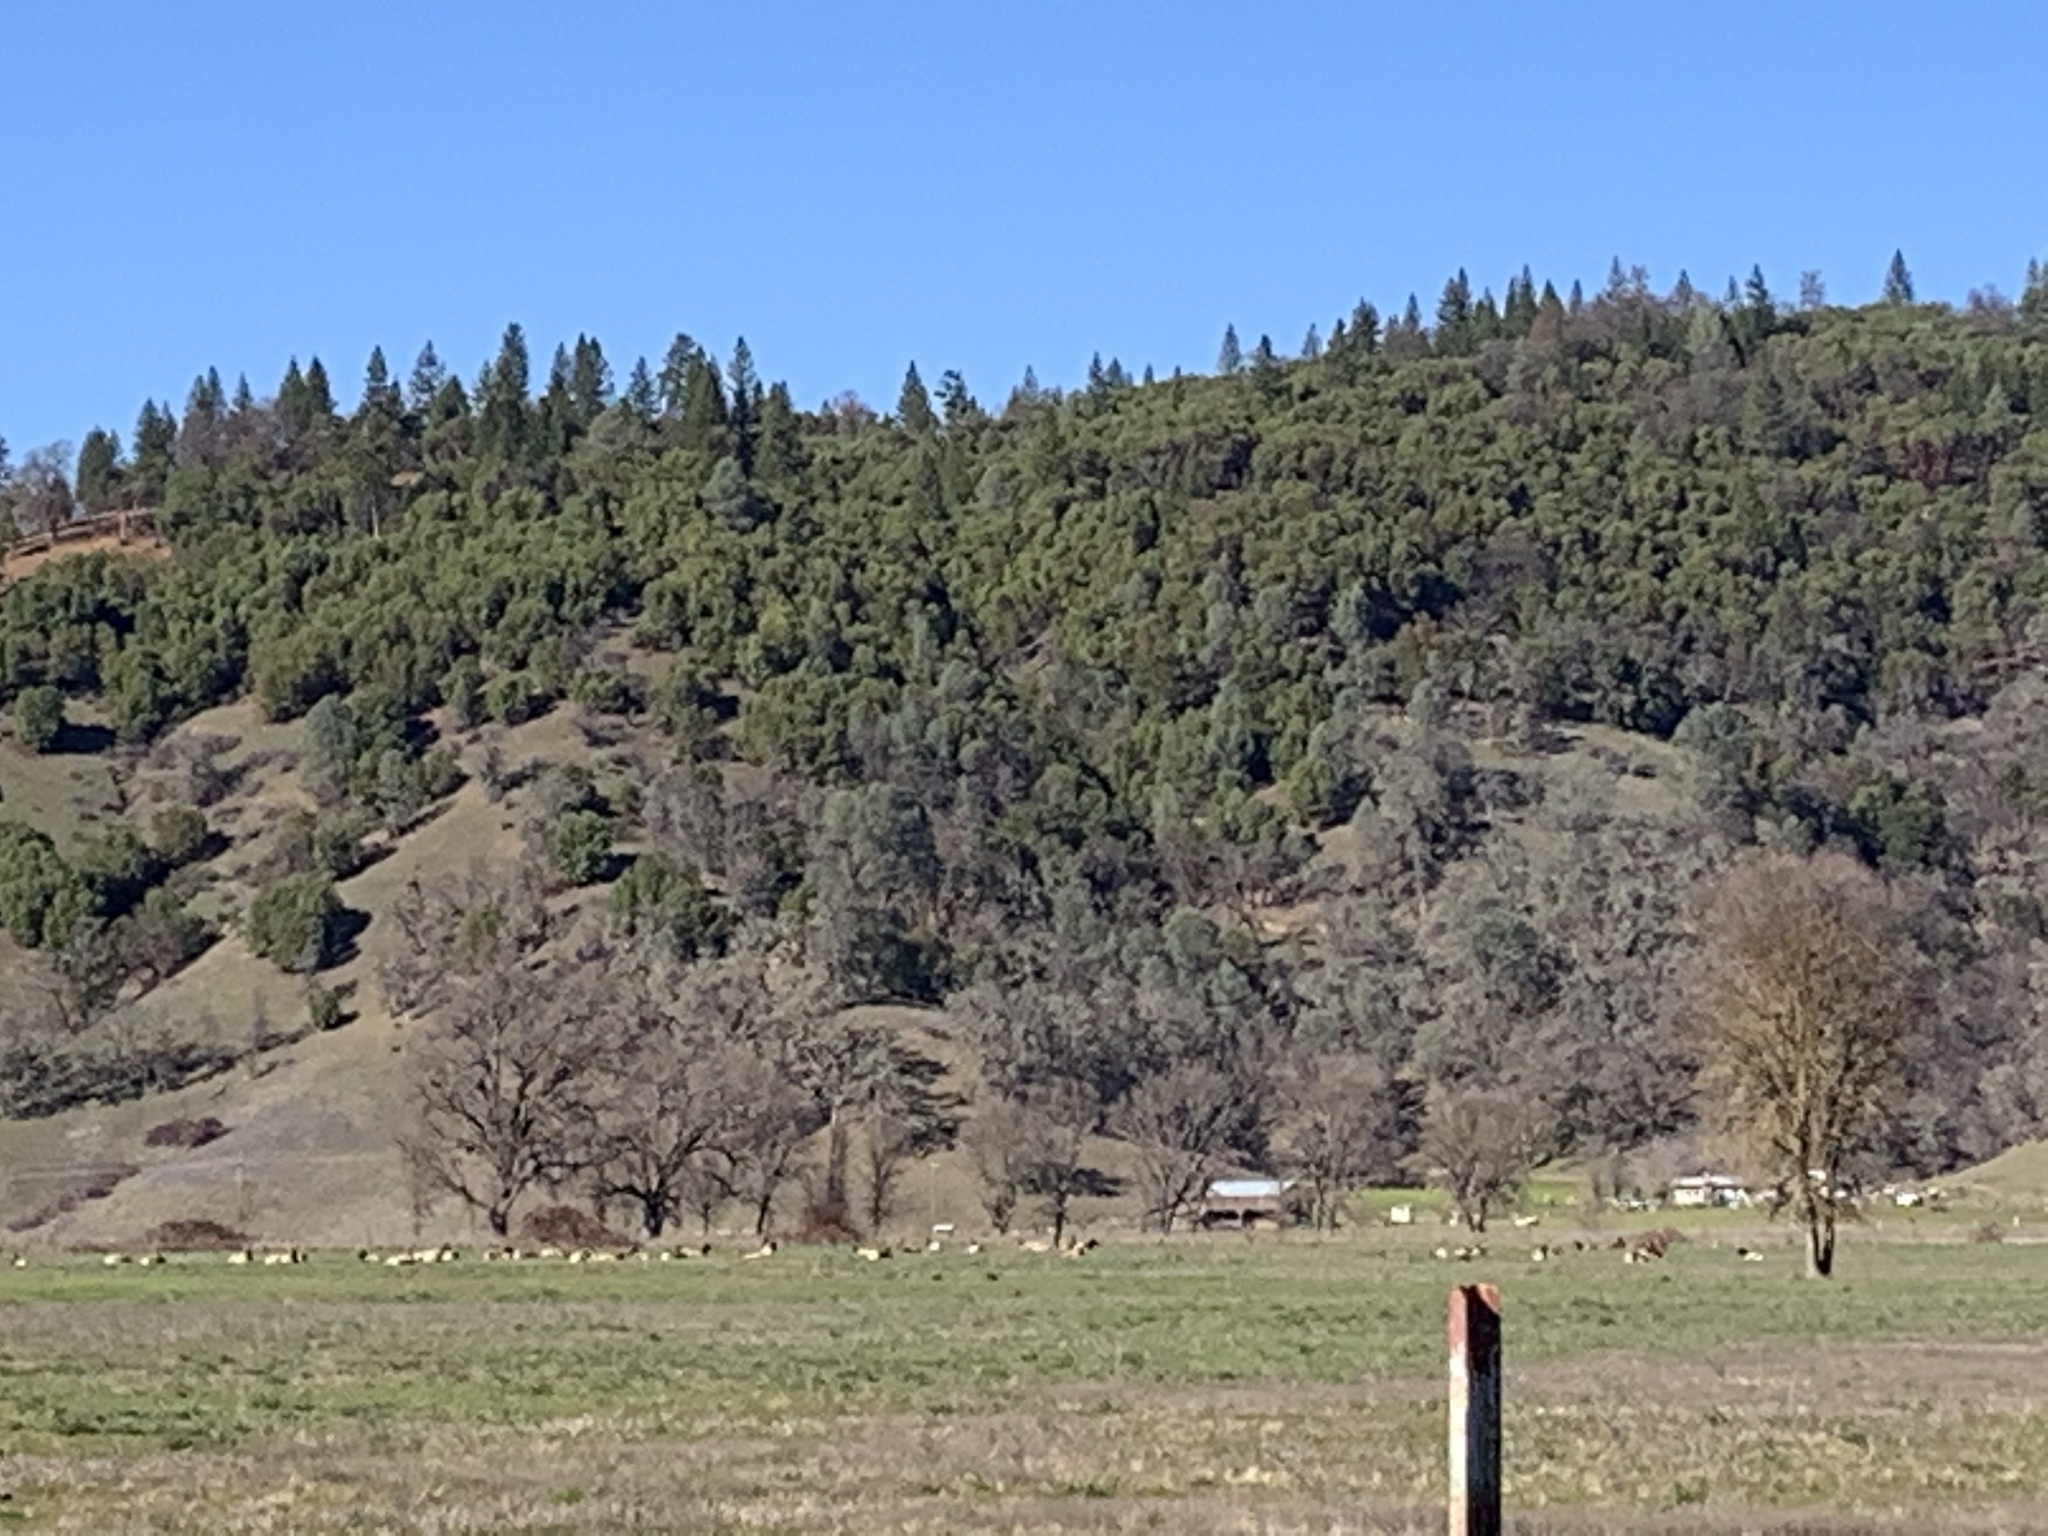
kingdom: Animalia
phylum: Chordata
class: Mammalia
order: Artiodactyla
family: Cervidae
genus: Cervus
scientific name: Cervus elaphus
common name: Red deer
